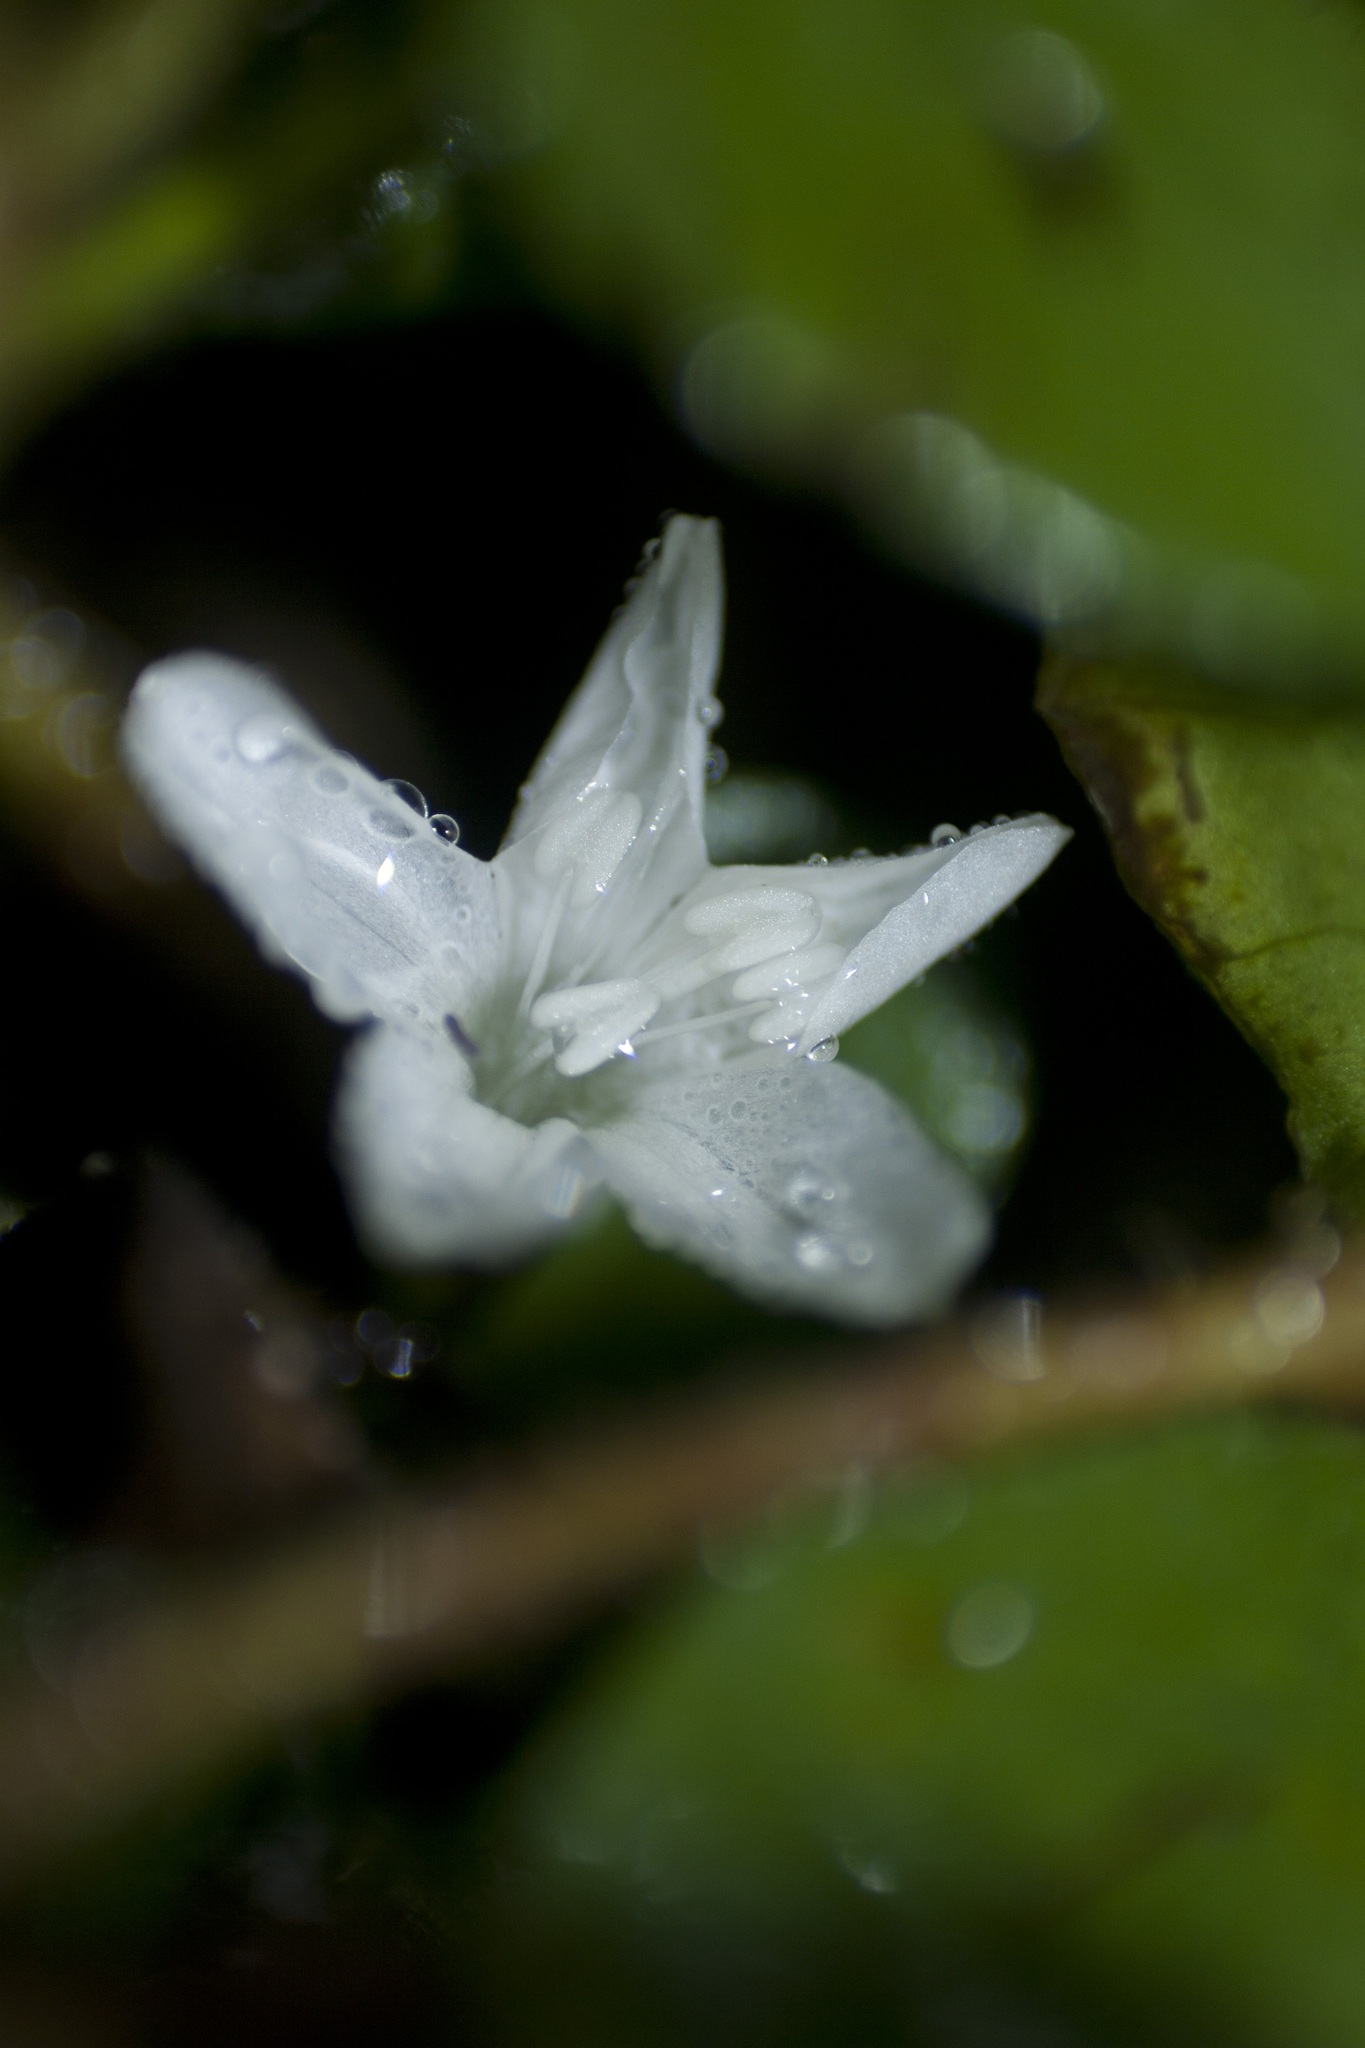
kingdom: Plantae
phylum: Tracheophyta
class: Magnoliopsida
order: Solanales
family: Convolvulaceae
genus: Evolvulus
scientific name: Evolvulus nummularius
